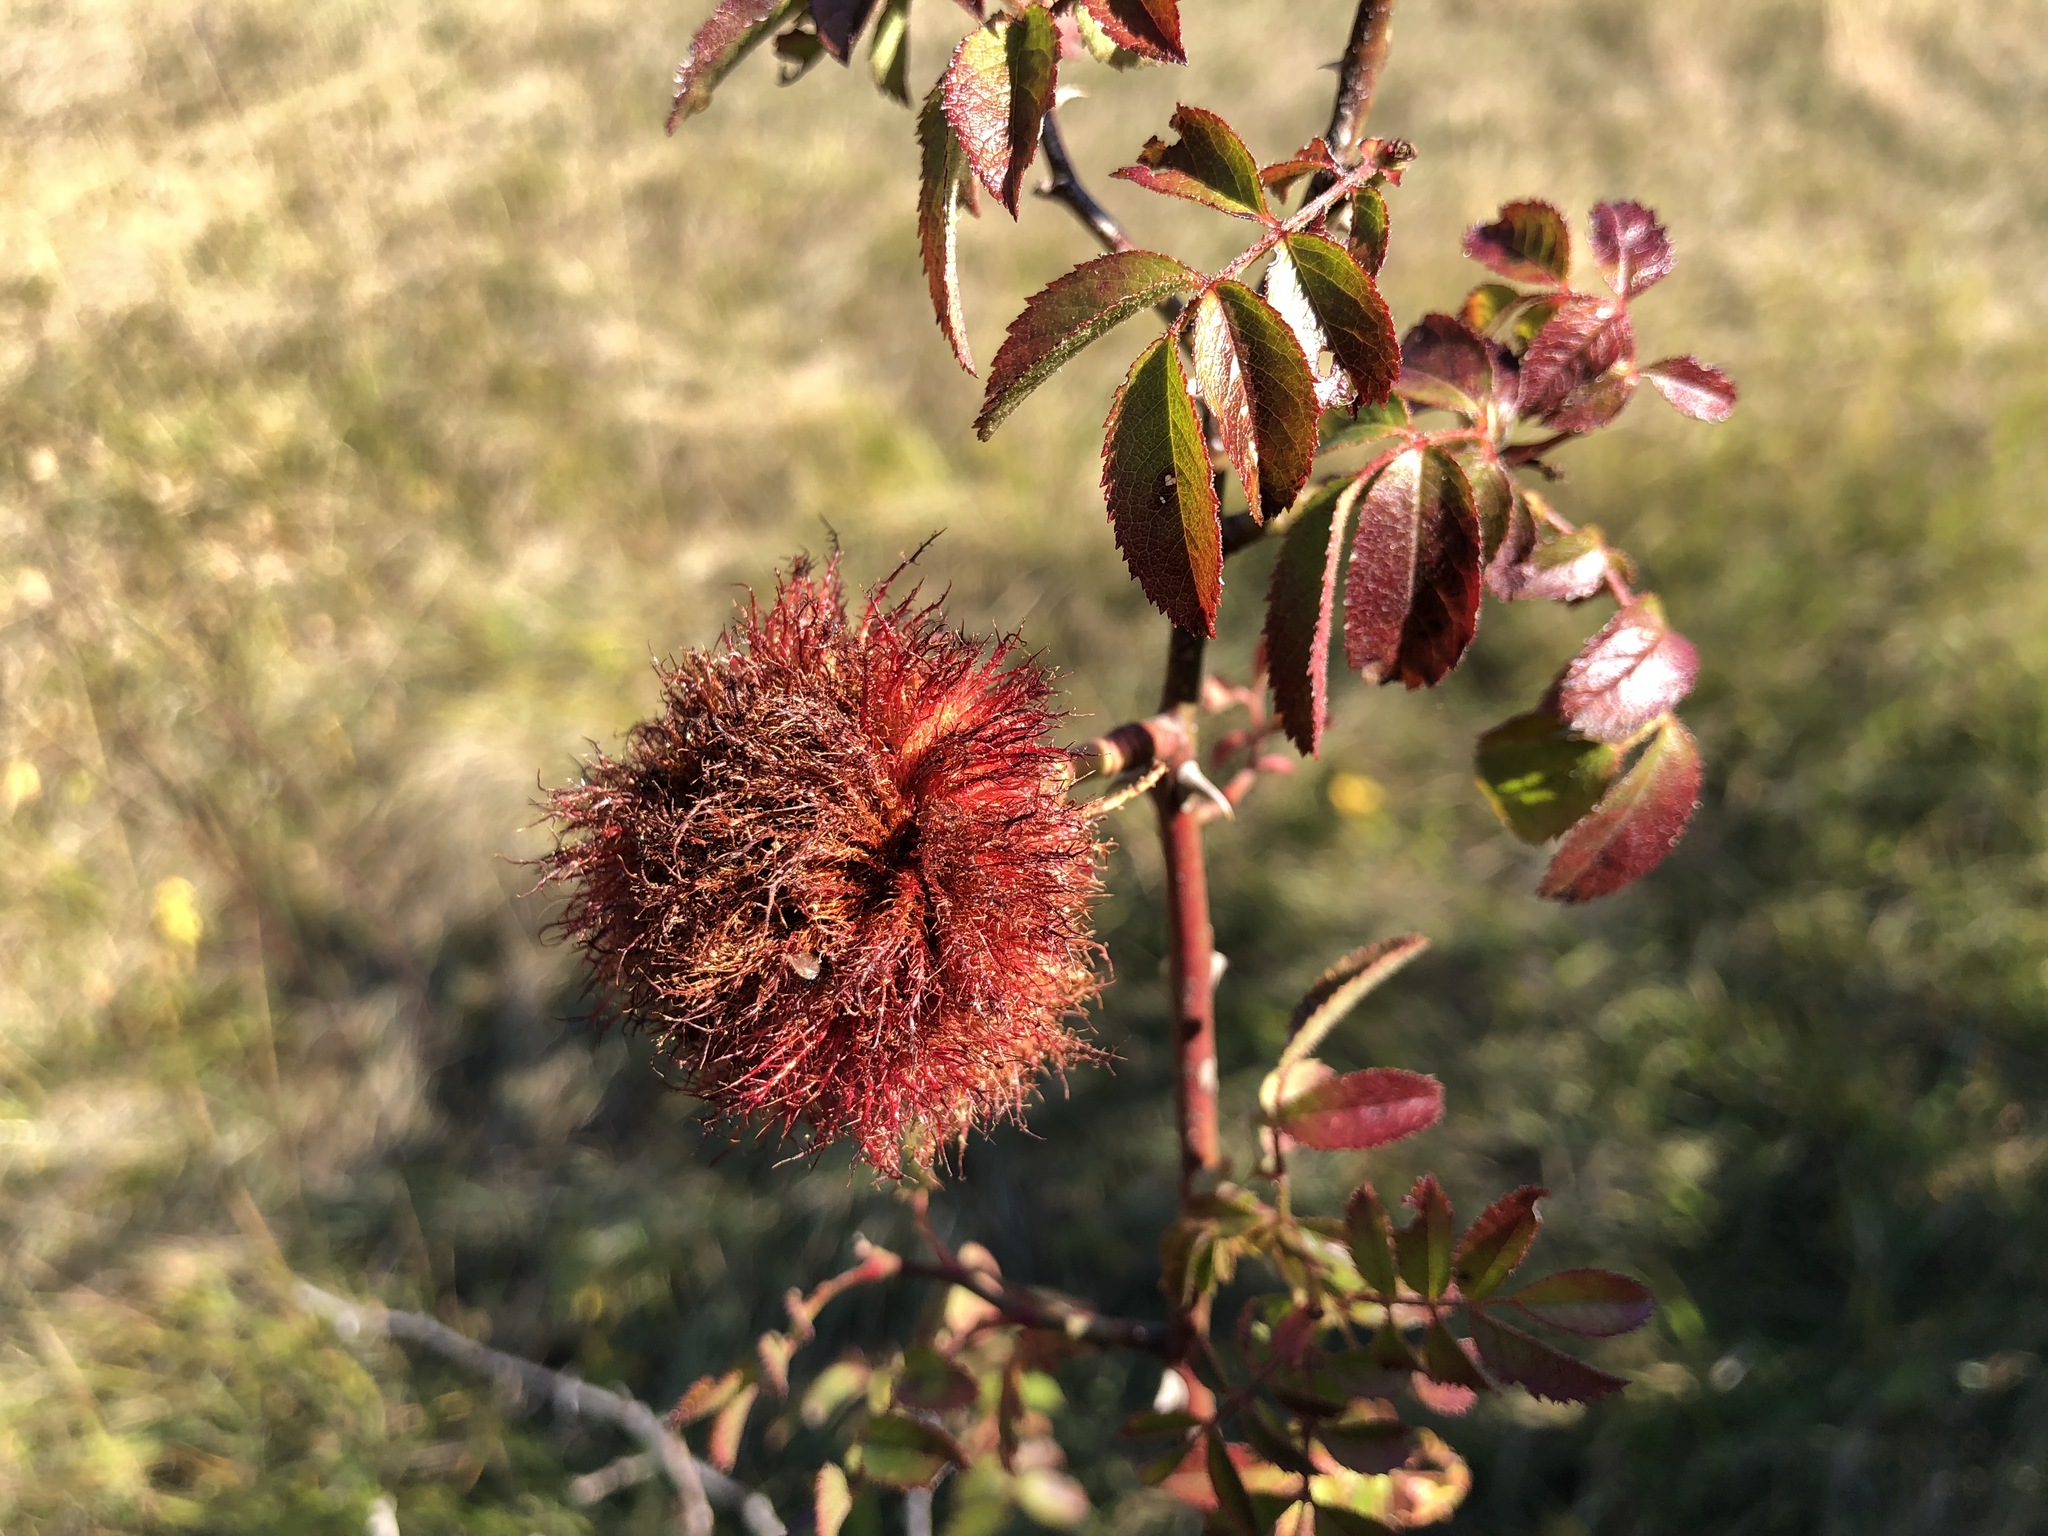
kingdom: Animalia
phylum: Arthropoda
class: Insecta
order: Hymenoptera
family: Cynipidae
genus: Diplolepis
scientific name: Diplolepis rosae
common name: Bedeguar gall
